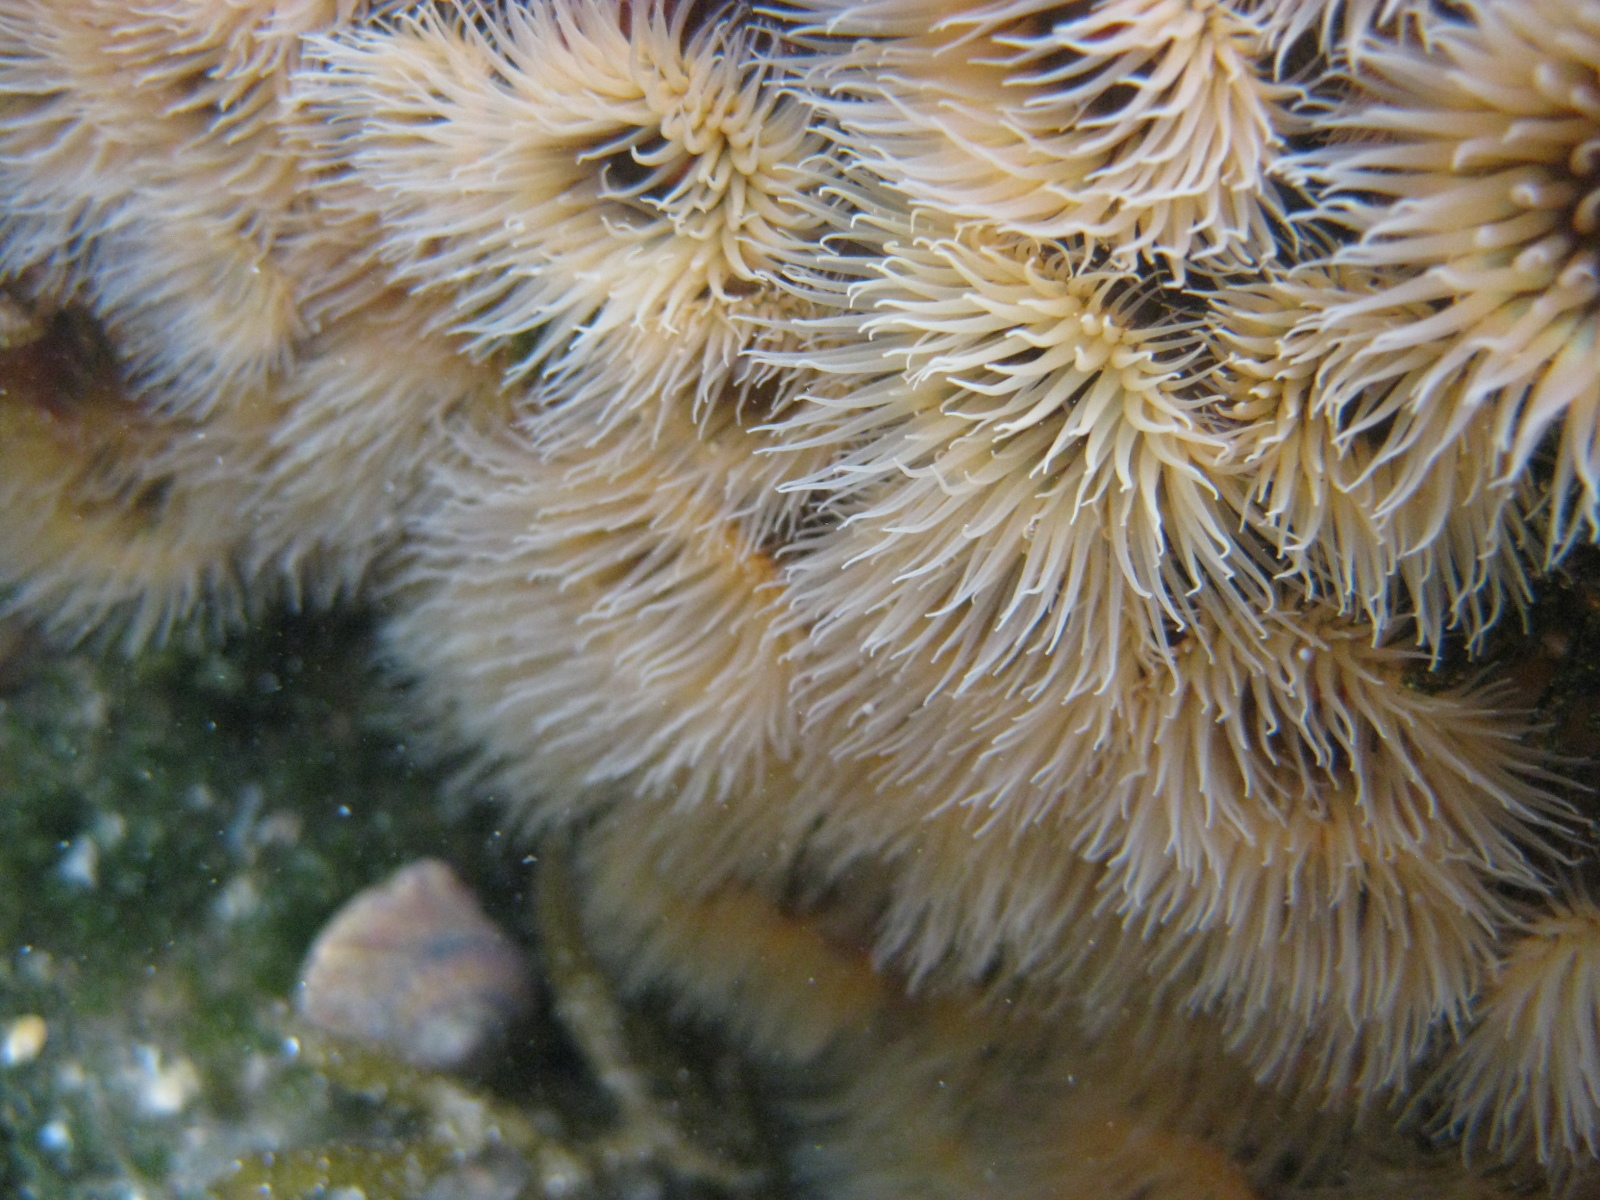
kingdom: Animalia
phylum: Cnidaria
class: Anthozoa
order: Actiniaria
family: Diadumenidae
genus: Diadumene
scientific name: Diadumene neozelanica
